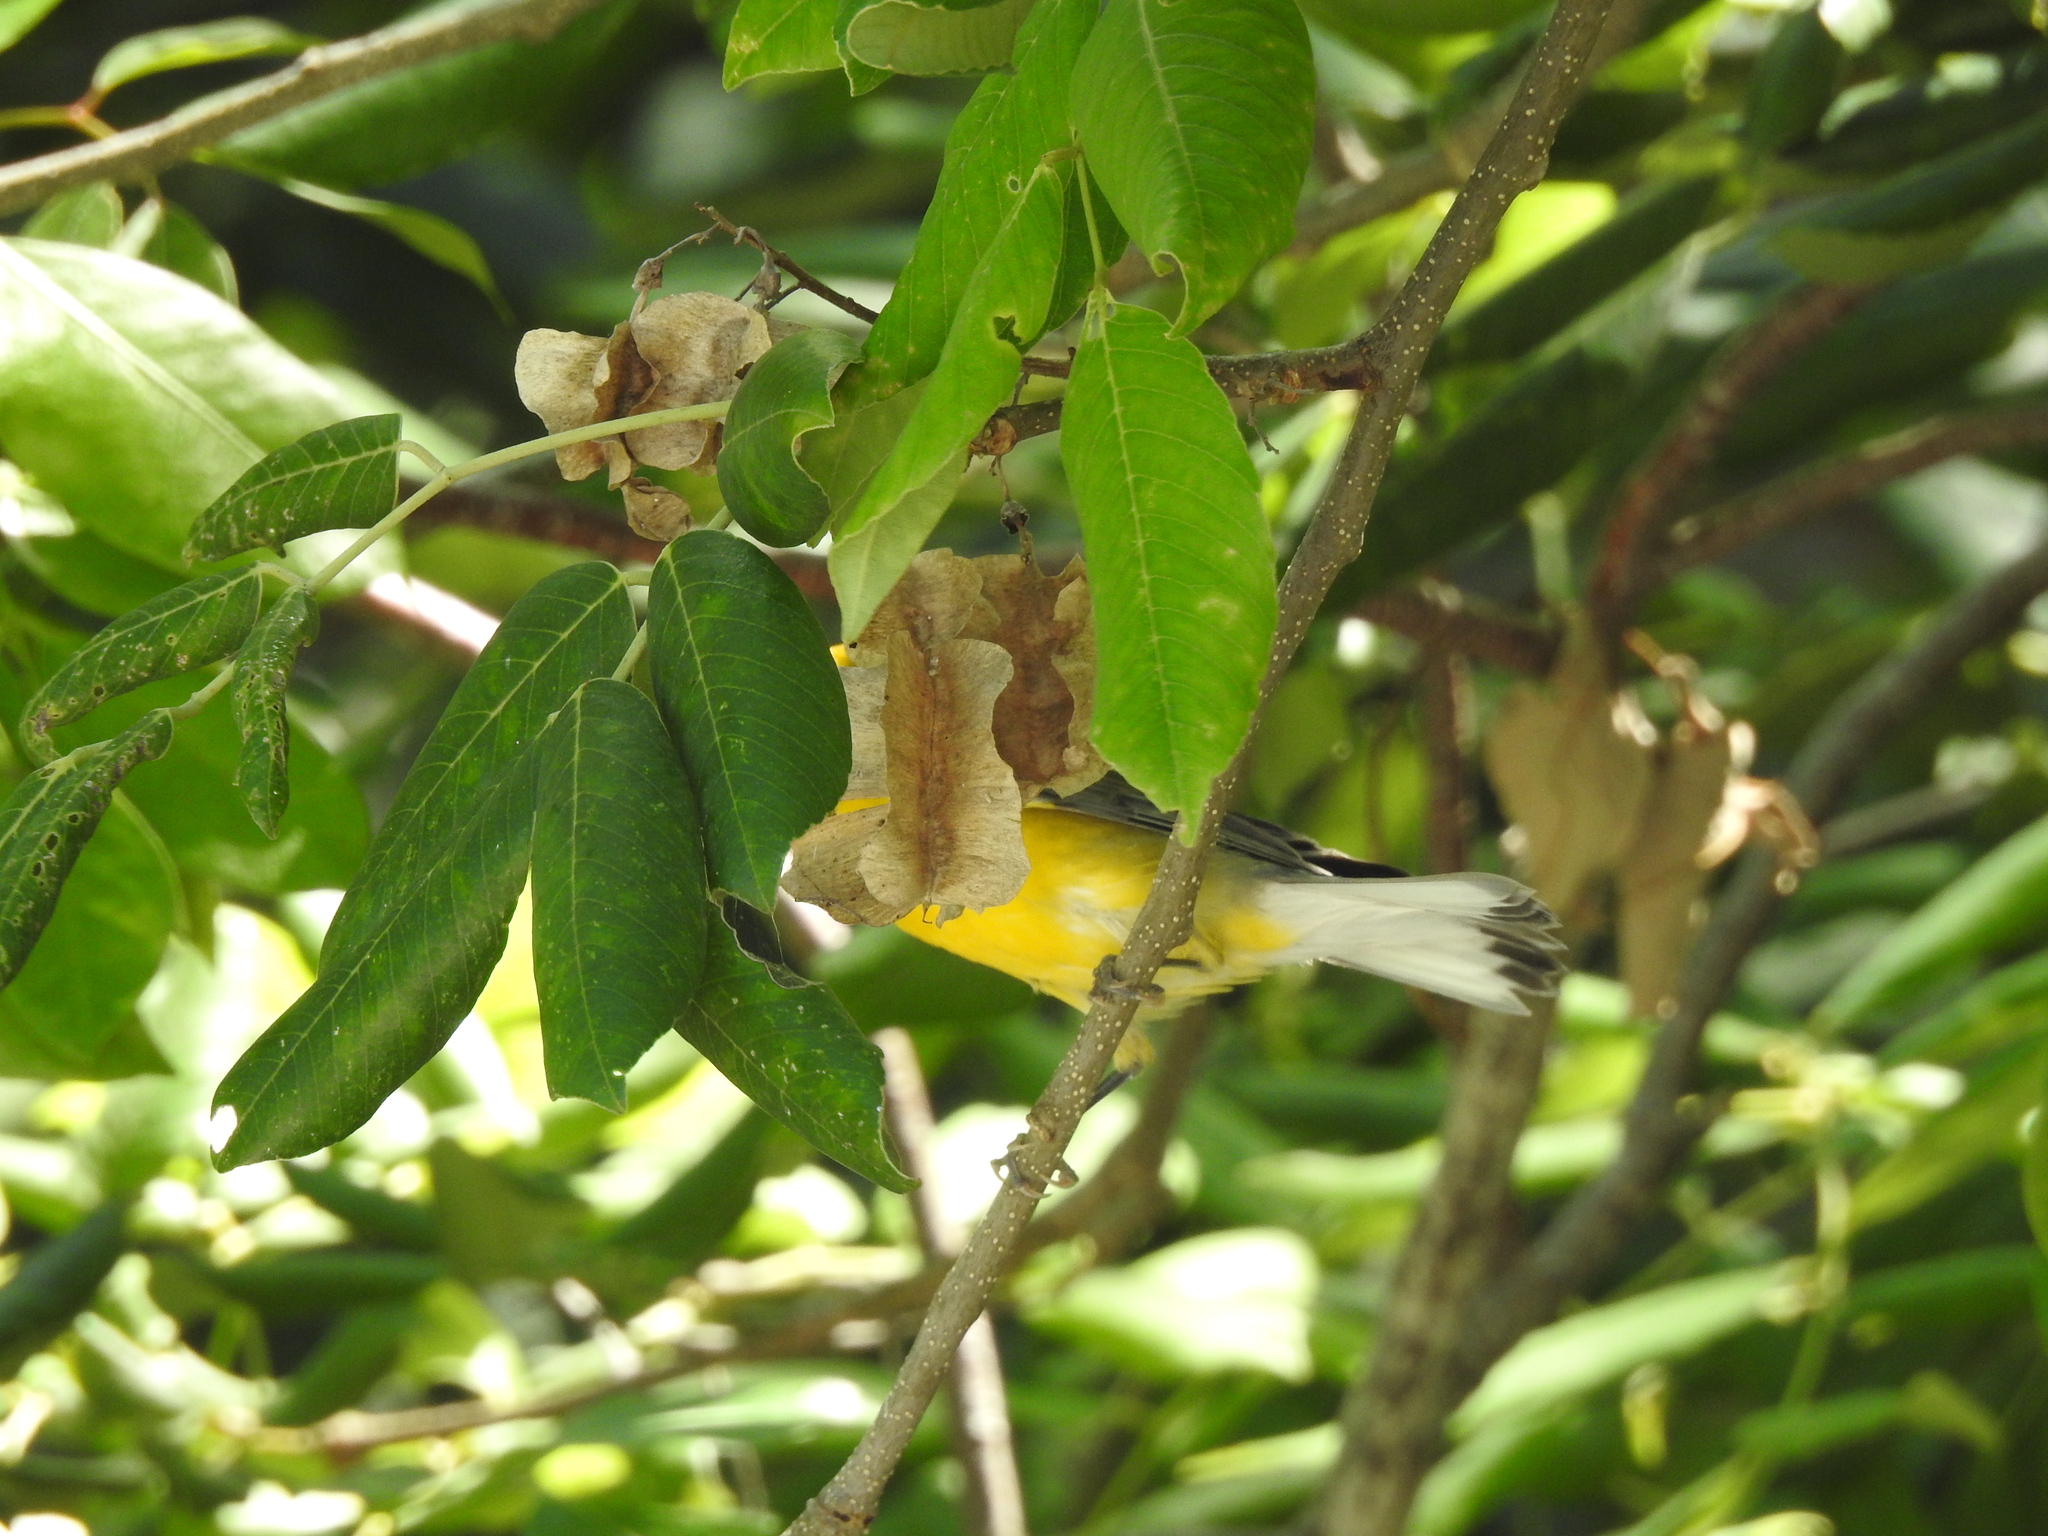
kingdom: Animalia
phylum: Chordata
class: Aves
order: Passeriformes
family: Parulidae
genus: Protonotaria
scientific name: Protonotaria citrea
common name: Prothonotary warbler
